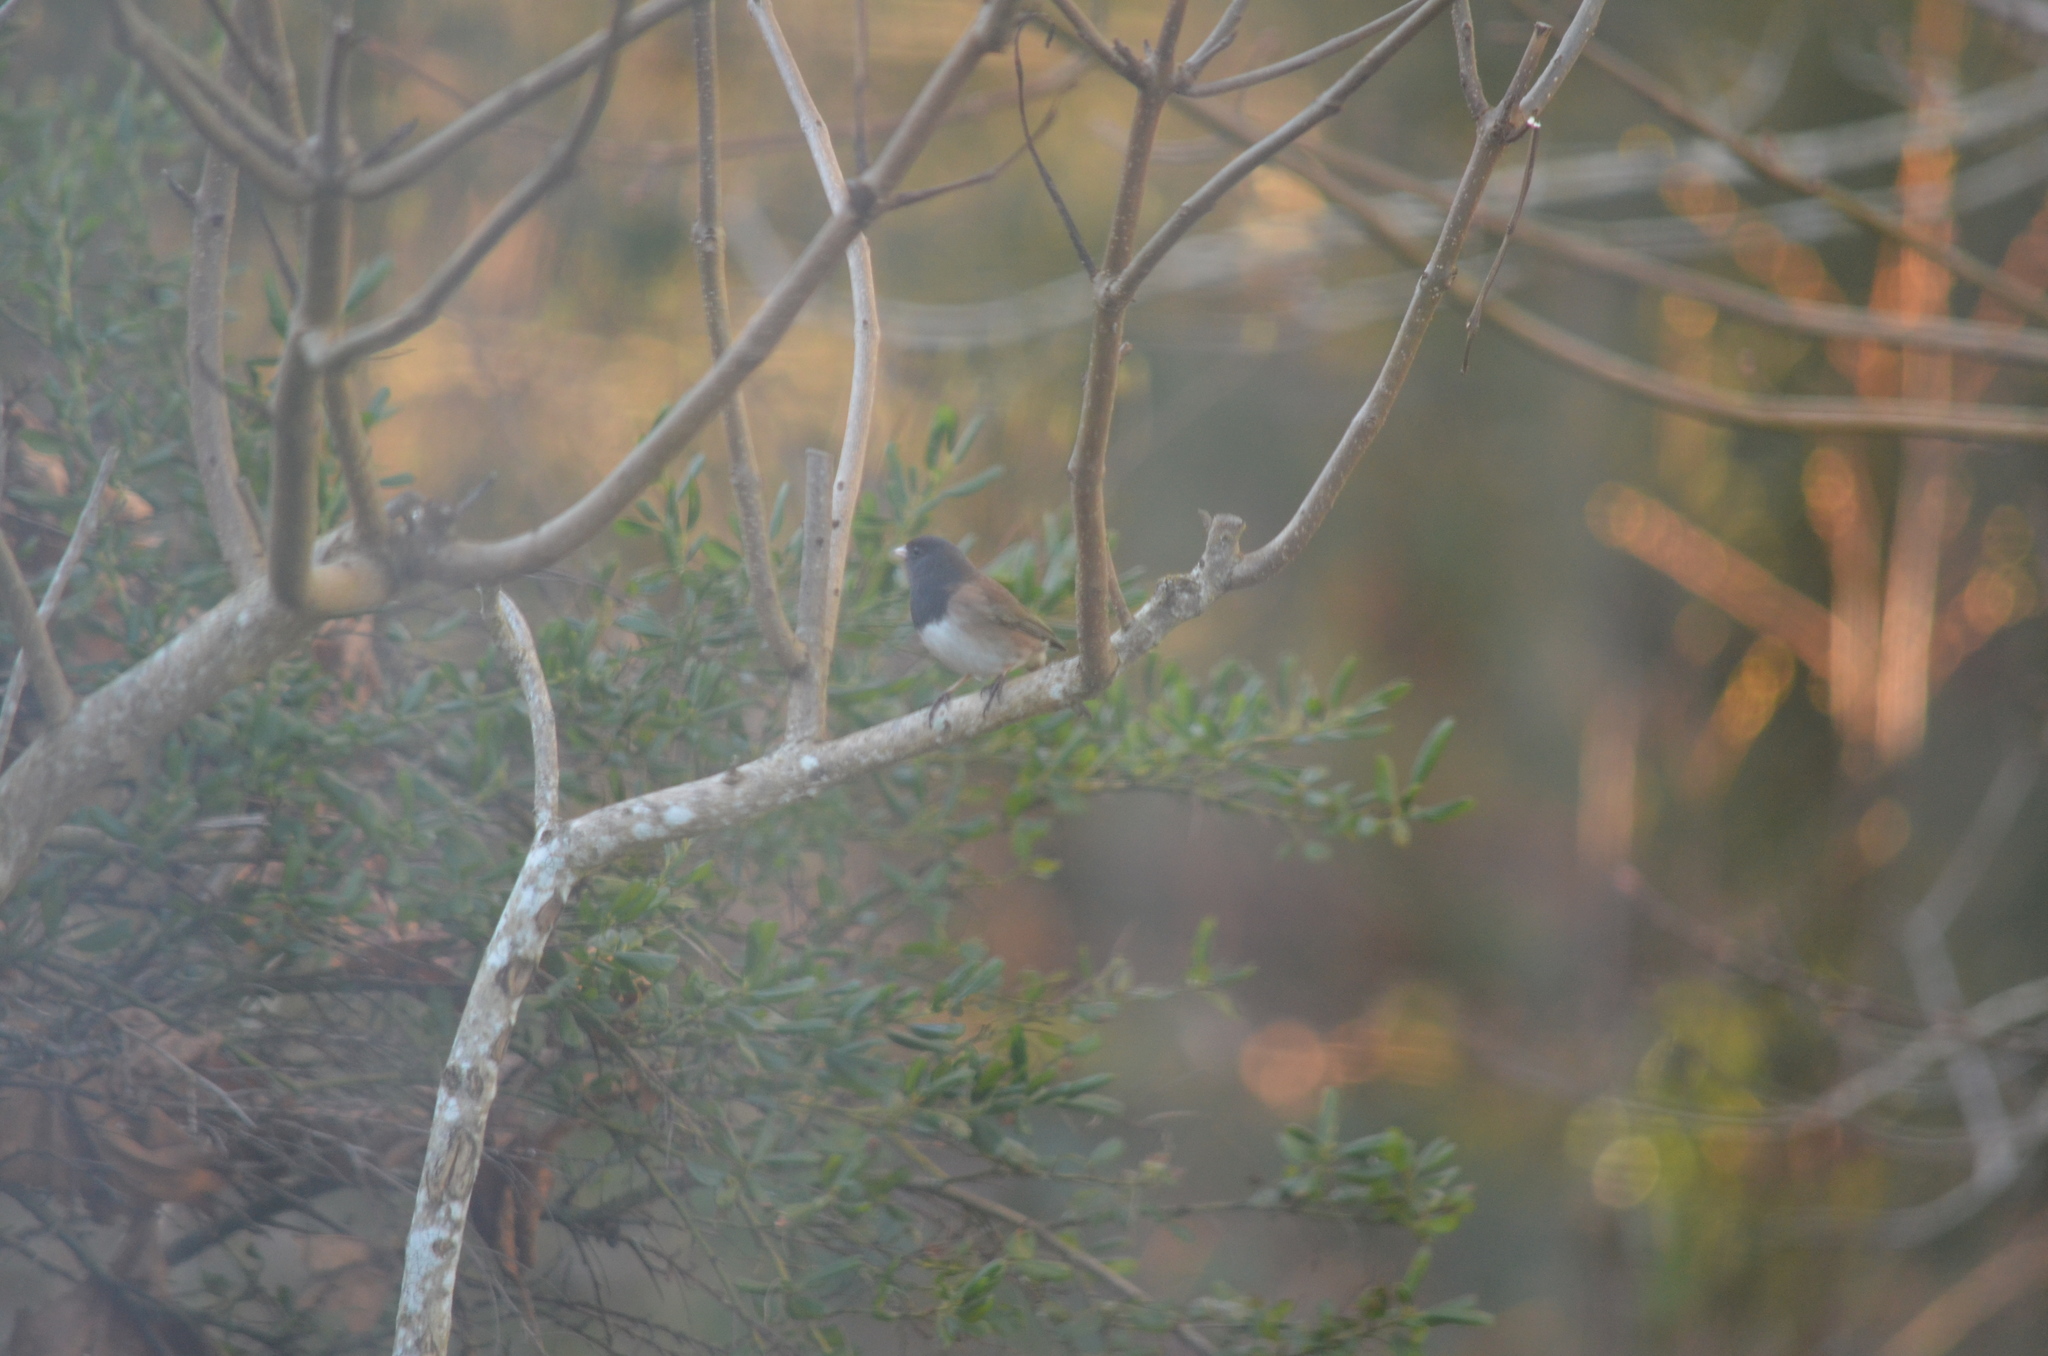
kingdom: Animalia
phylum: Chordata
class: Aves
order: Passeriformes
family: Passerellidae
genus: Junco
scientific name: Junco hyemalis
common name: Dark-eyed junco
